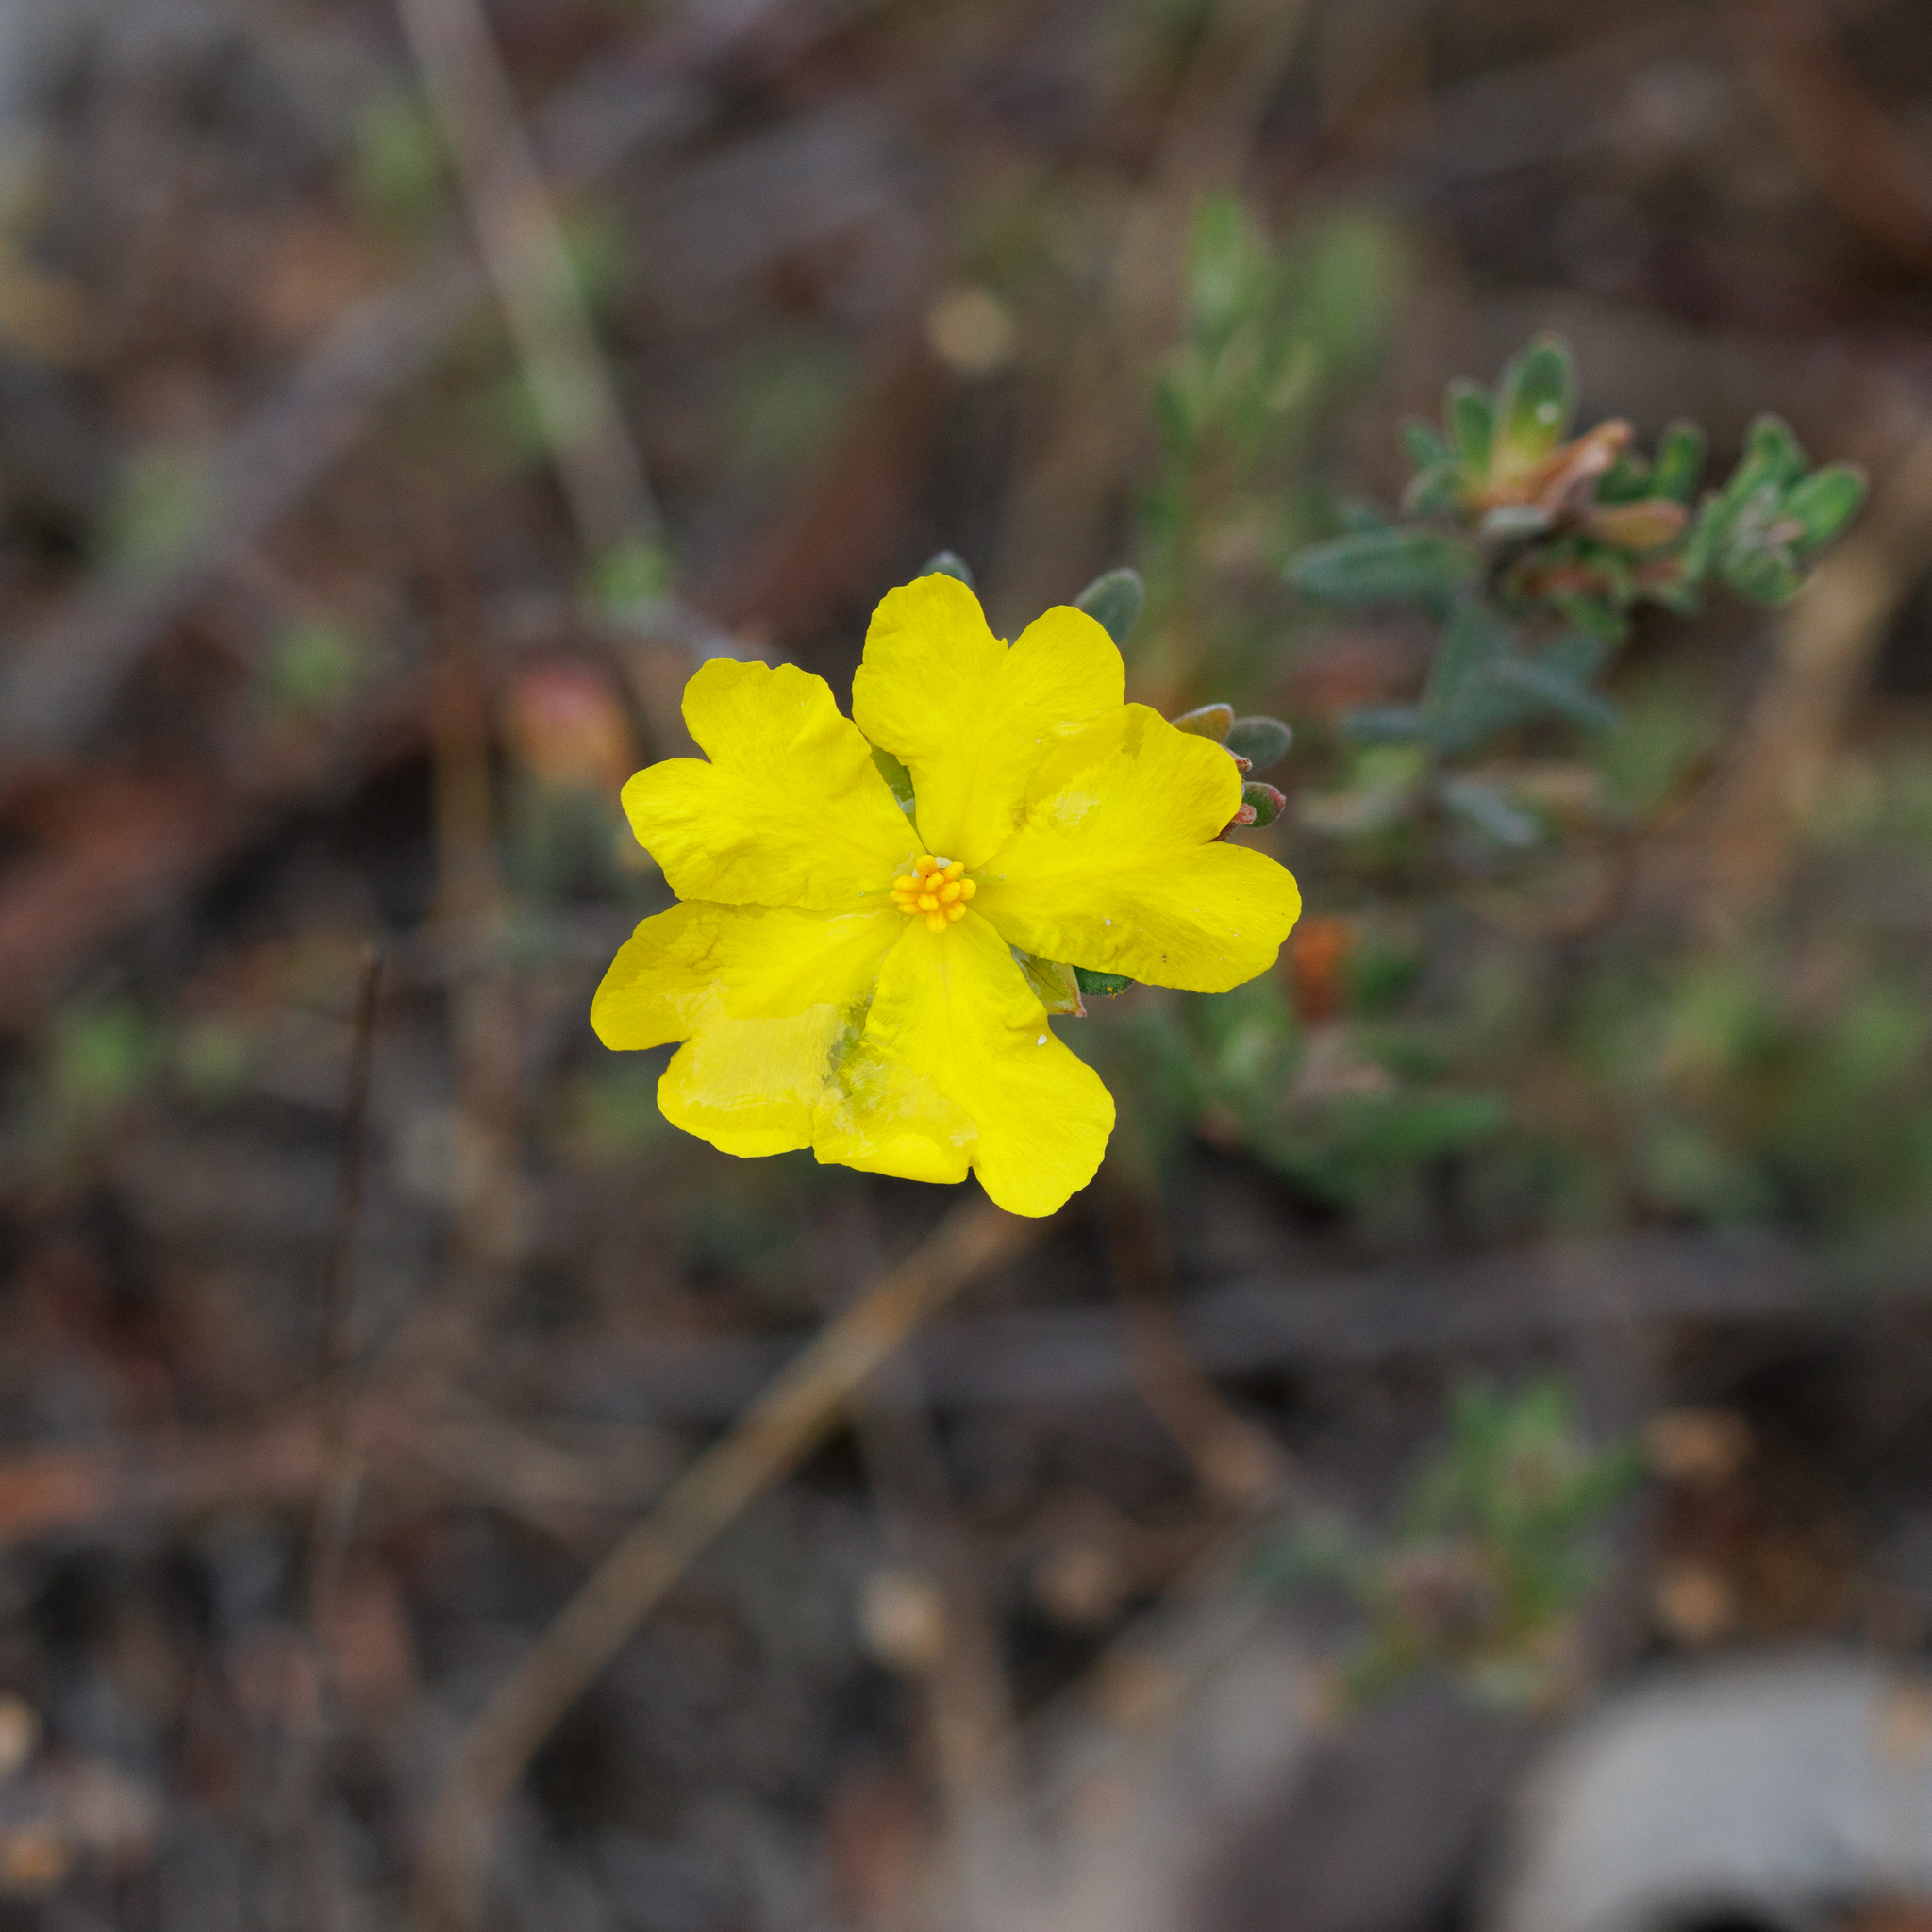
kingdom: Plantae
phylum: Tracheophyta
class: Magnoliopsida
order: Dilleniales
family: Dilleniaceae
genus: Hibbertia
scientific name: Hibbertia crinita
